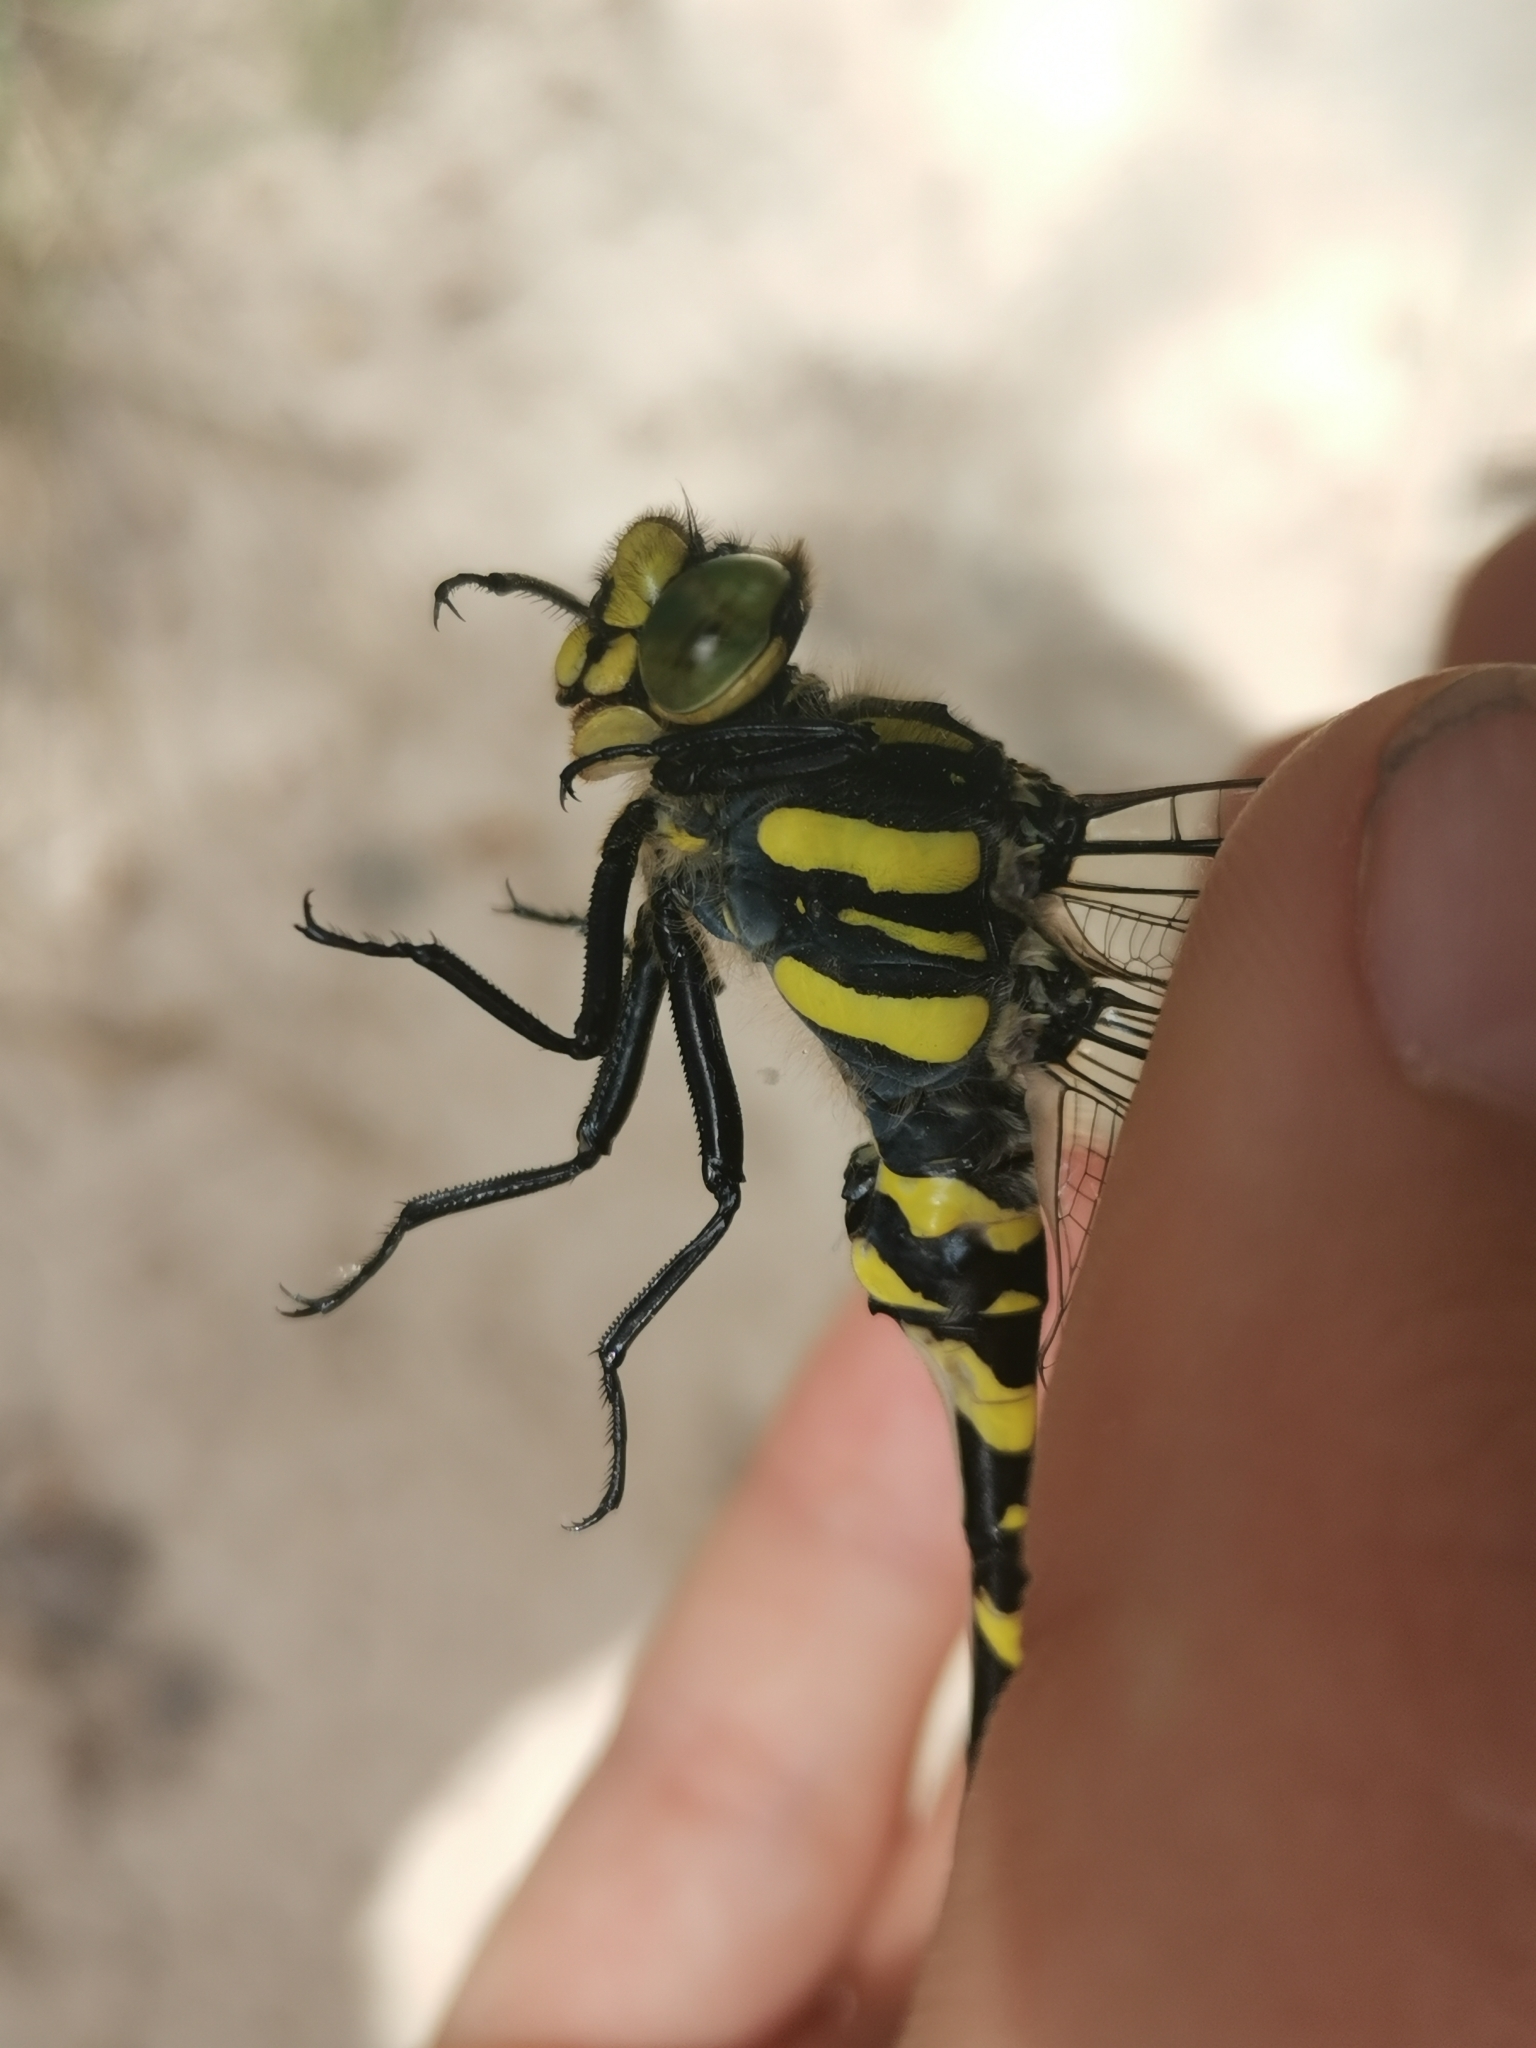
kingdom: Animalia
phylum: Arthropoda
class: Insecta
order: Odonata
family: Cordulegastridae
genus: Cordulegaster
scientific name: Cordulegaster boltonii
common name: Golden-ringed dragonfly
